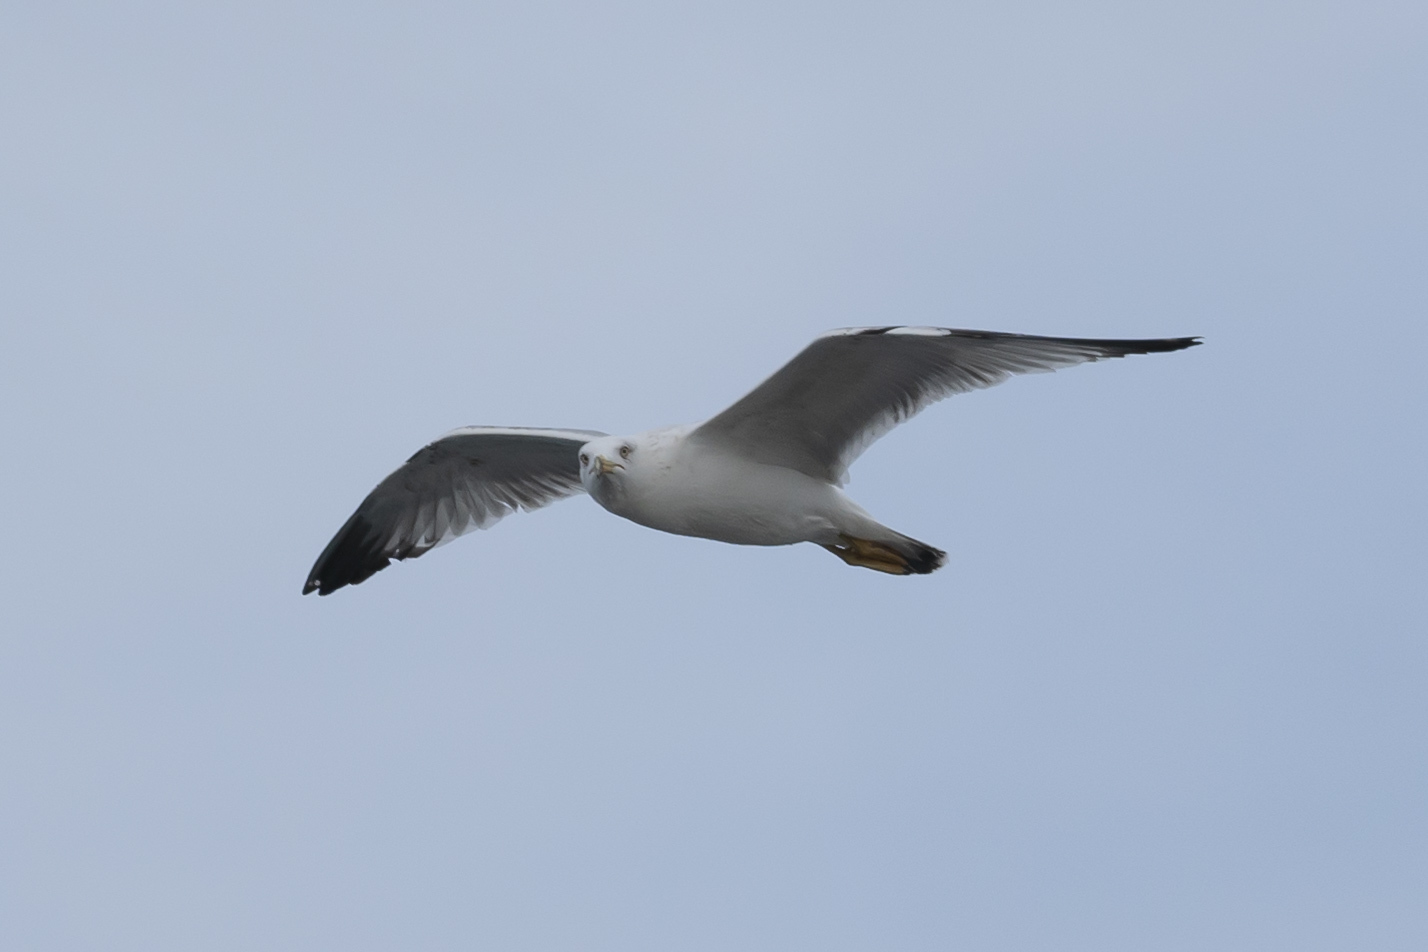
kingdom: Animalia
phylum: Chordata
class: Aves
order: Charadriiformes
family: Laridae
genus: Larus
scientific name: Larus michahellis
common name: Yellow-legged gull
